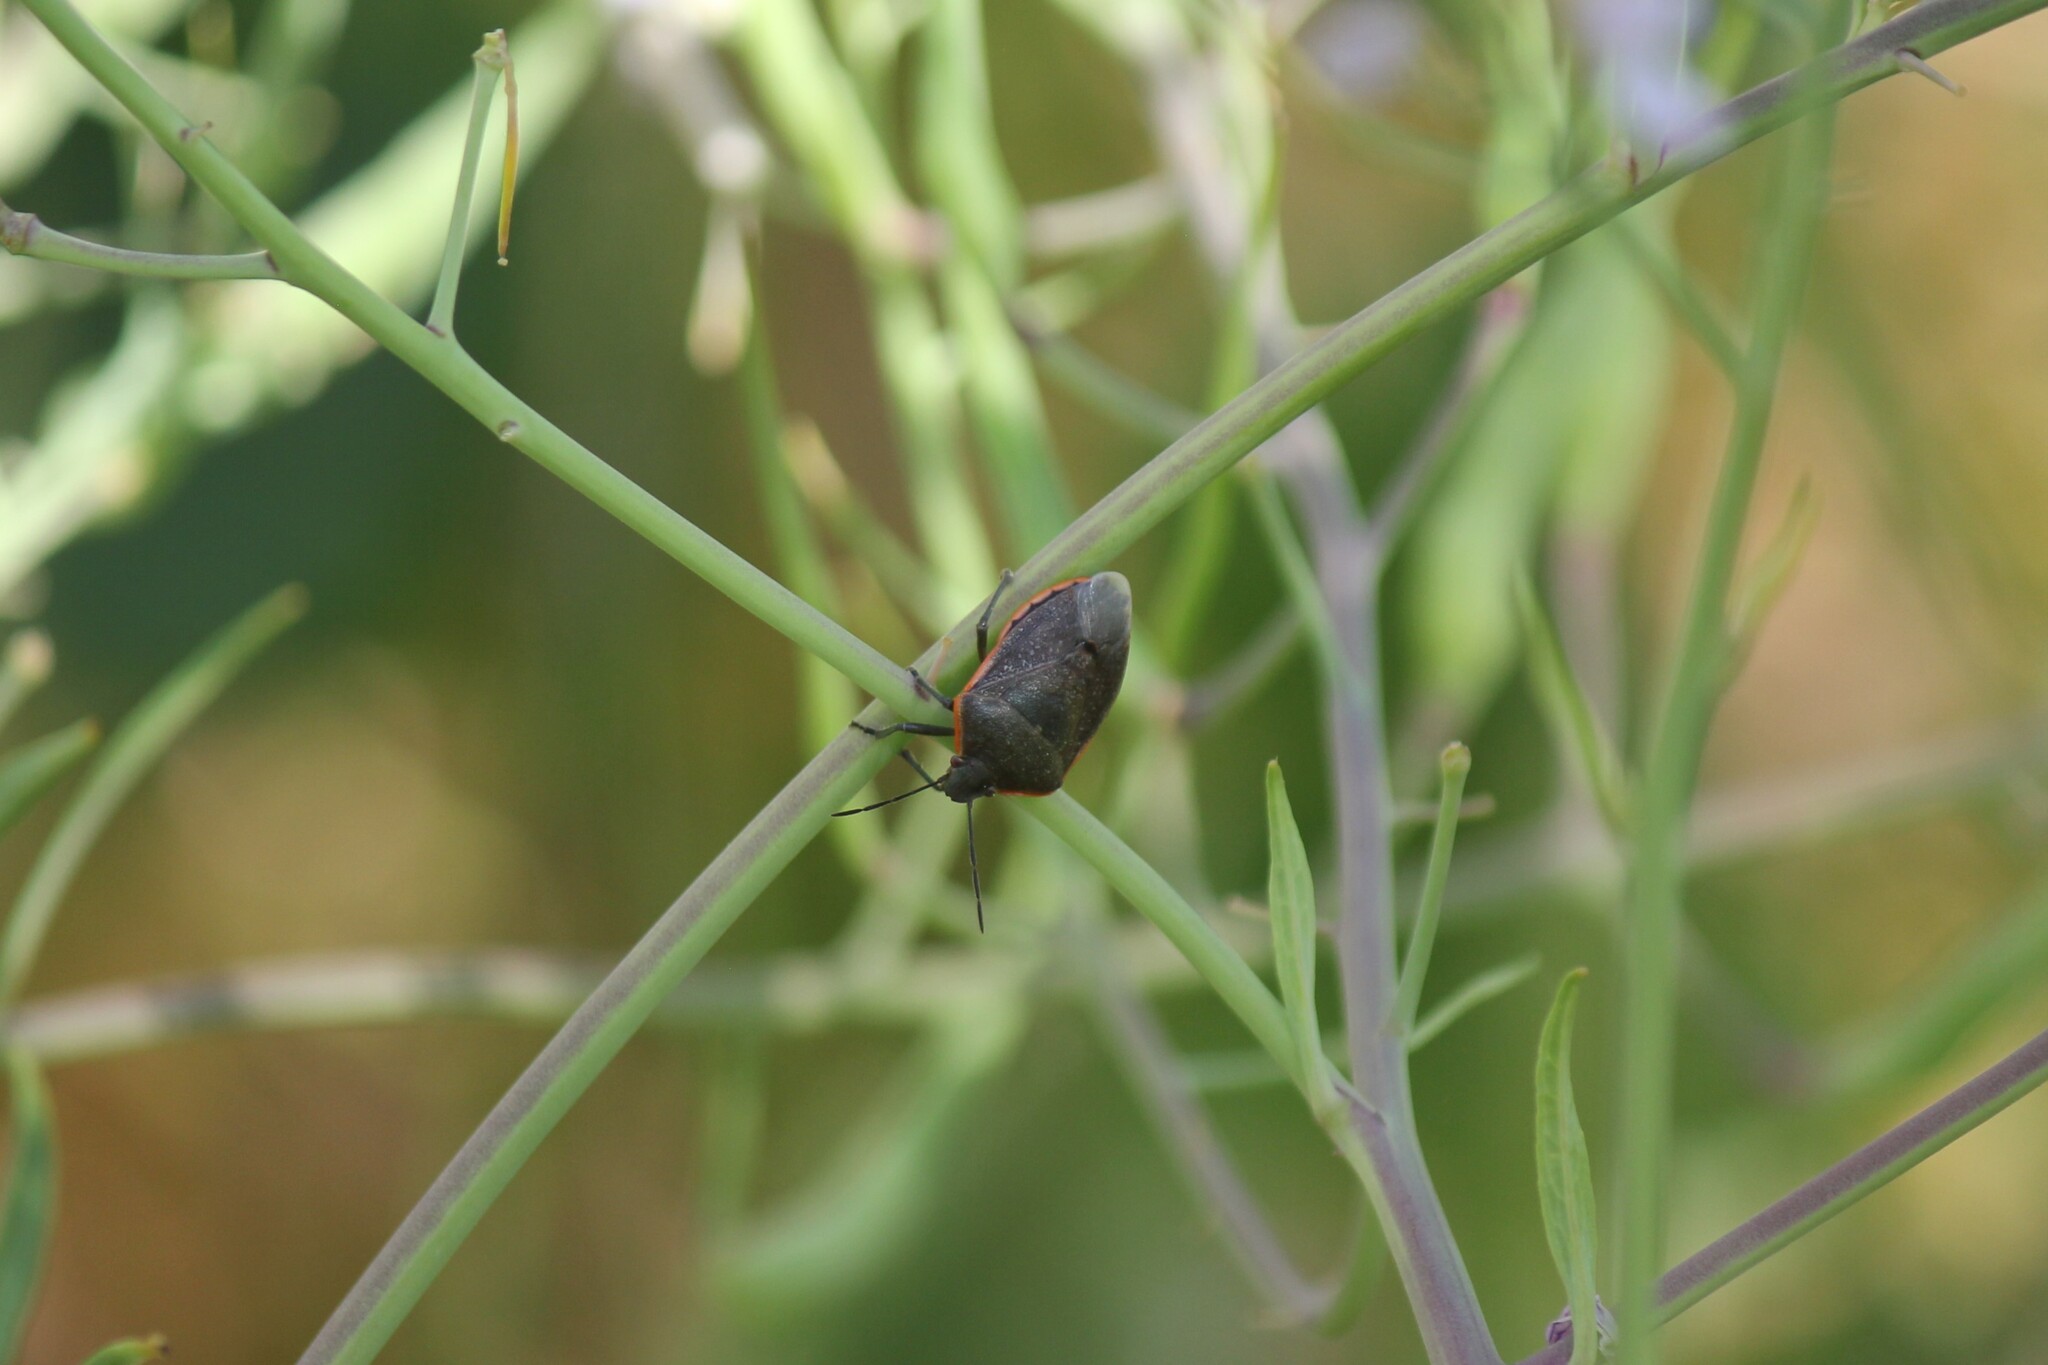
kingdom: Animalia
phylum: Arthropoda
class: Insecta
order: Hemiptera
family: Pentatomidae
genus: Chlorochroa
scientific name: Chlorochroa ligata
